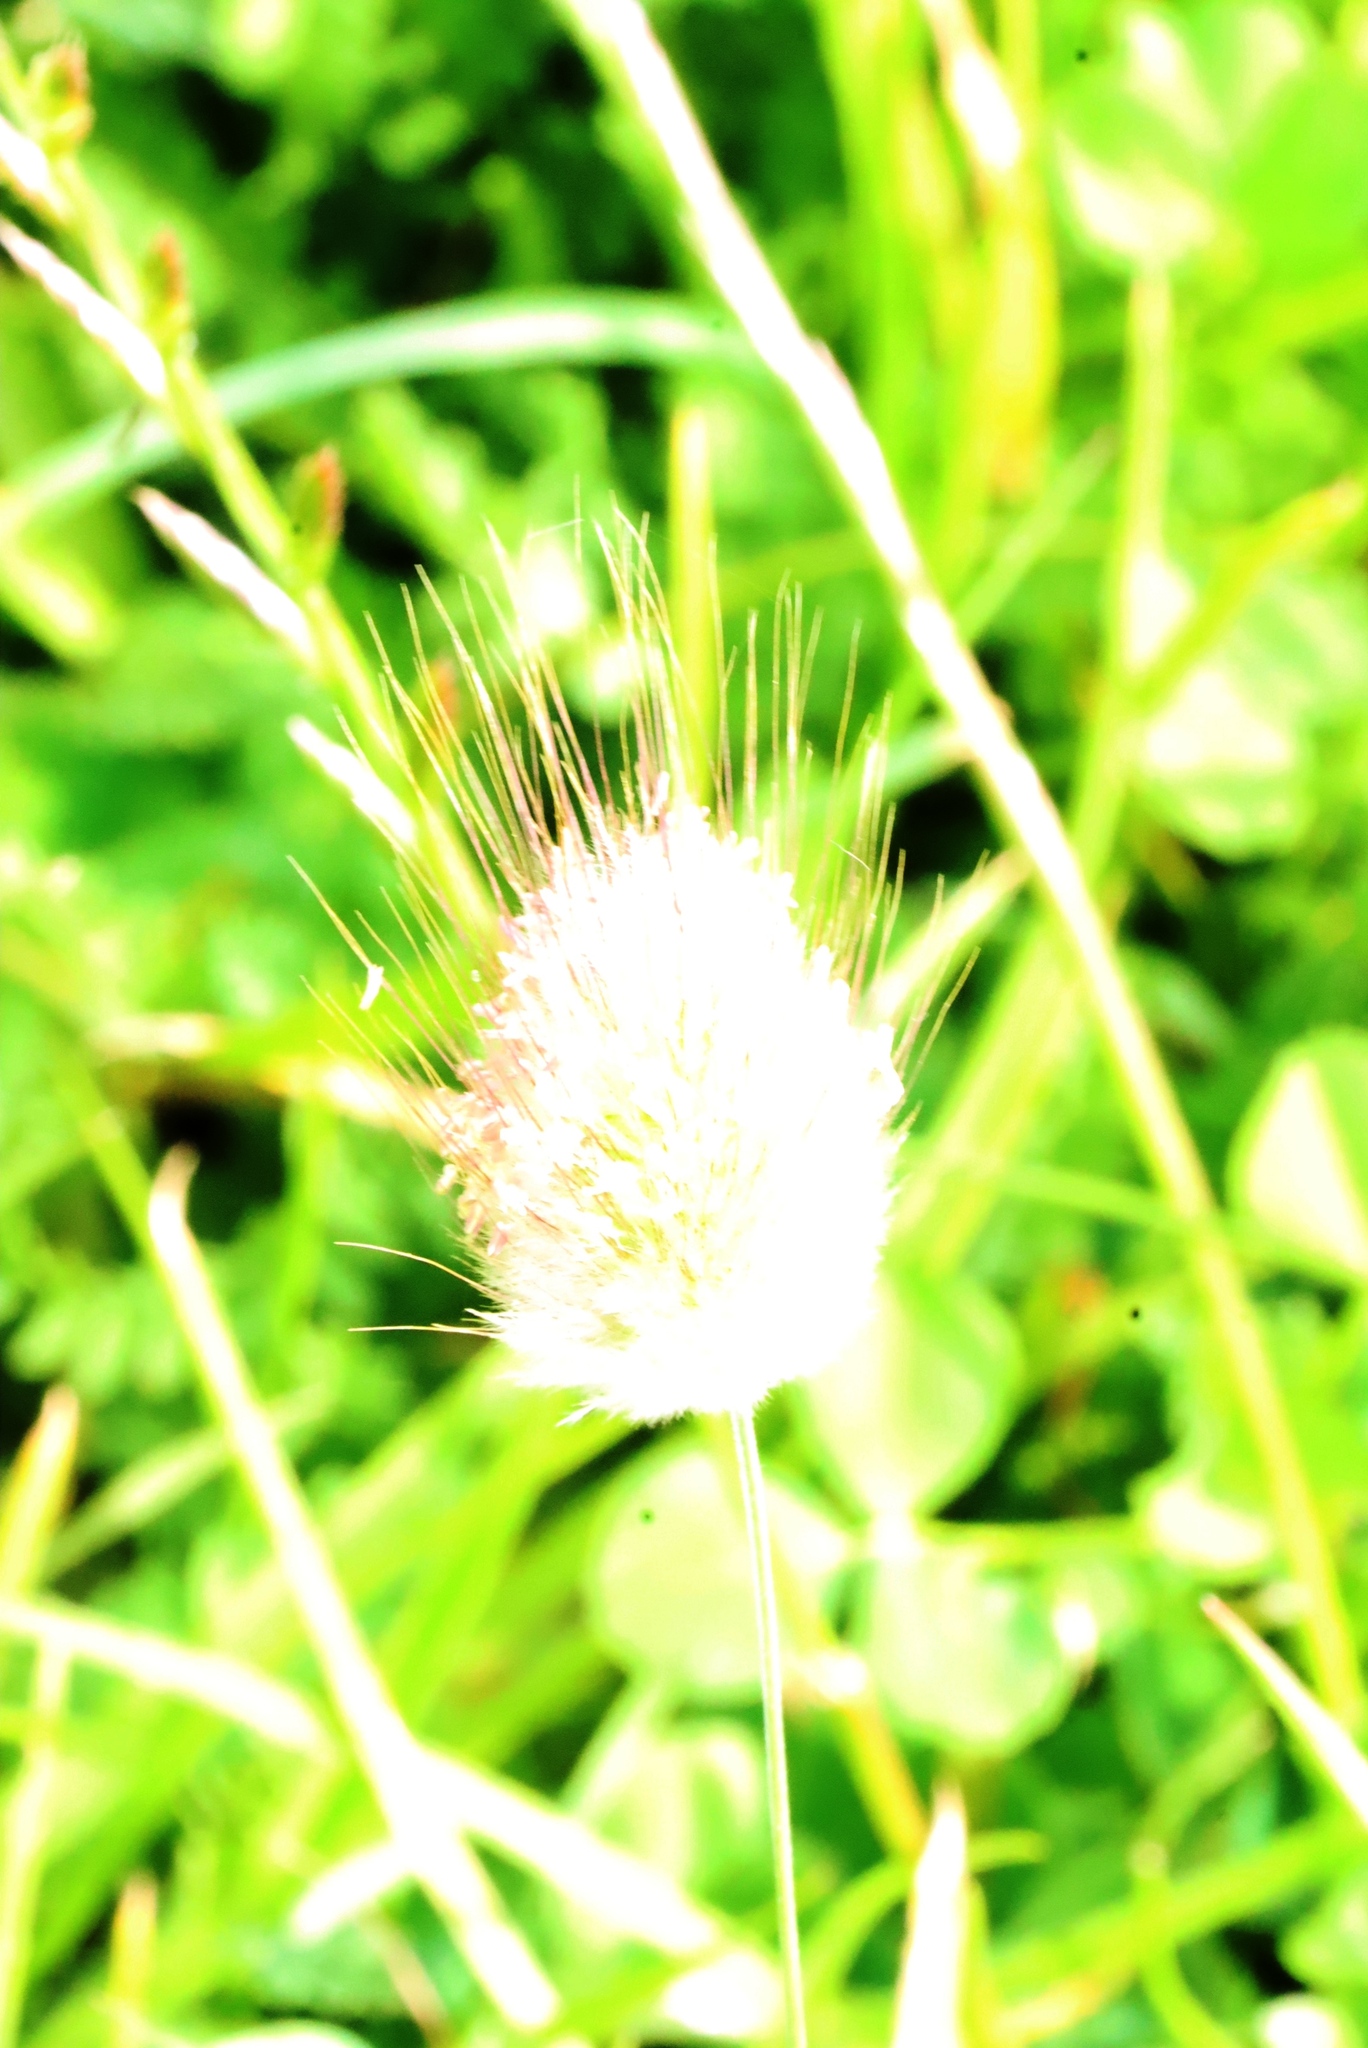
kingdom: Plantae
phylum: Tracheophyta
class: Liliopsida
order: Poales
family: Poaceae
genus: Lagurus
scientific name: Lagurus ovatus
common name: Hare's-tail
